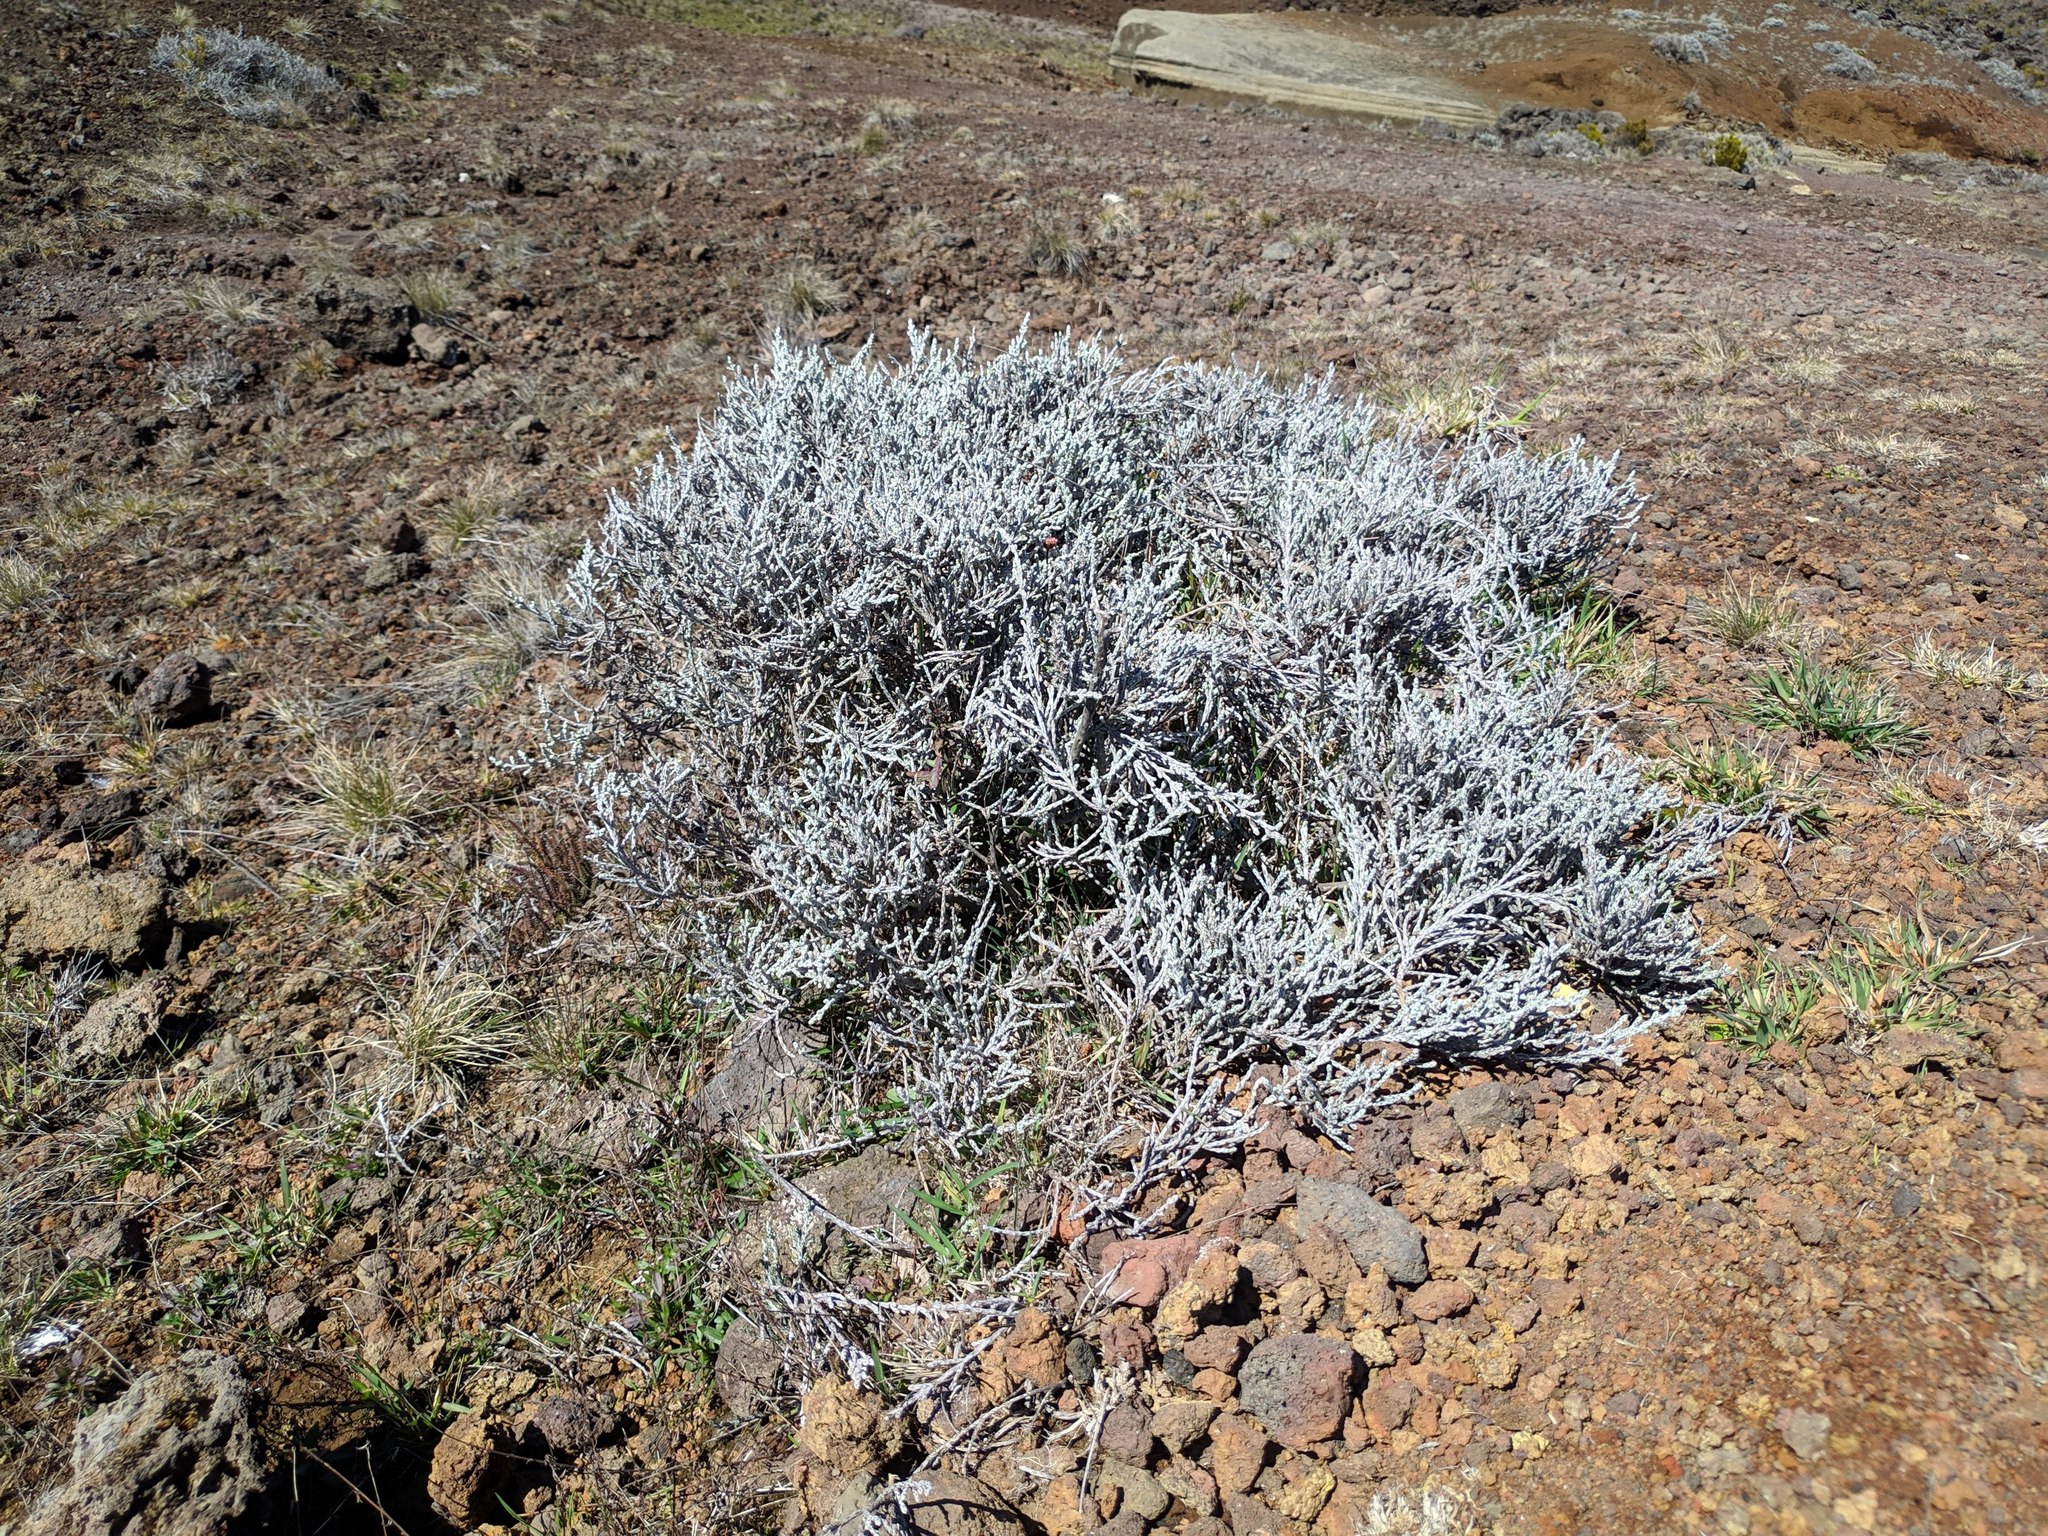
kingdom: Plantae
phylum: Tracheophyta
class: Magnoliopsida
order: Asterales
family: Asteraceae
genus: Seriphium
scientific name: Seriphium passerinoides
